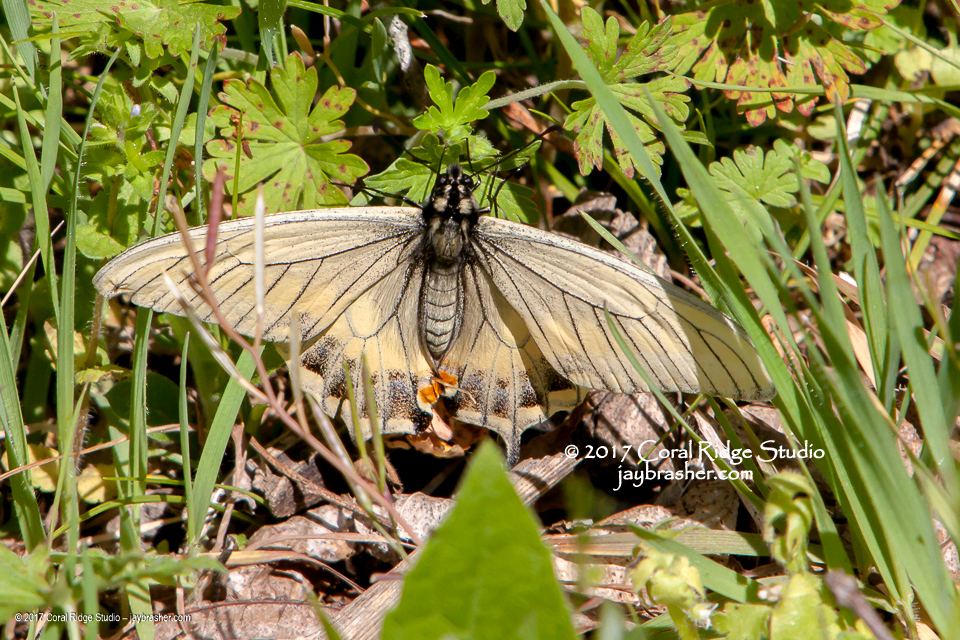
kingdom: Animalia
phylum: Arthropoda
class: Insecta
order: Lepidoptera
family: Papilionidae
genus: Papilio
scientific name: Papilio polyxenes
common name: Black swallowtail
